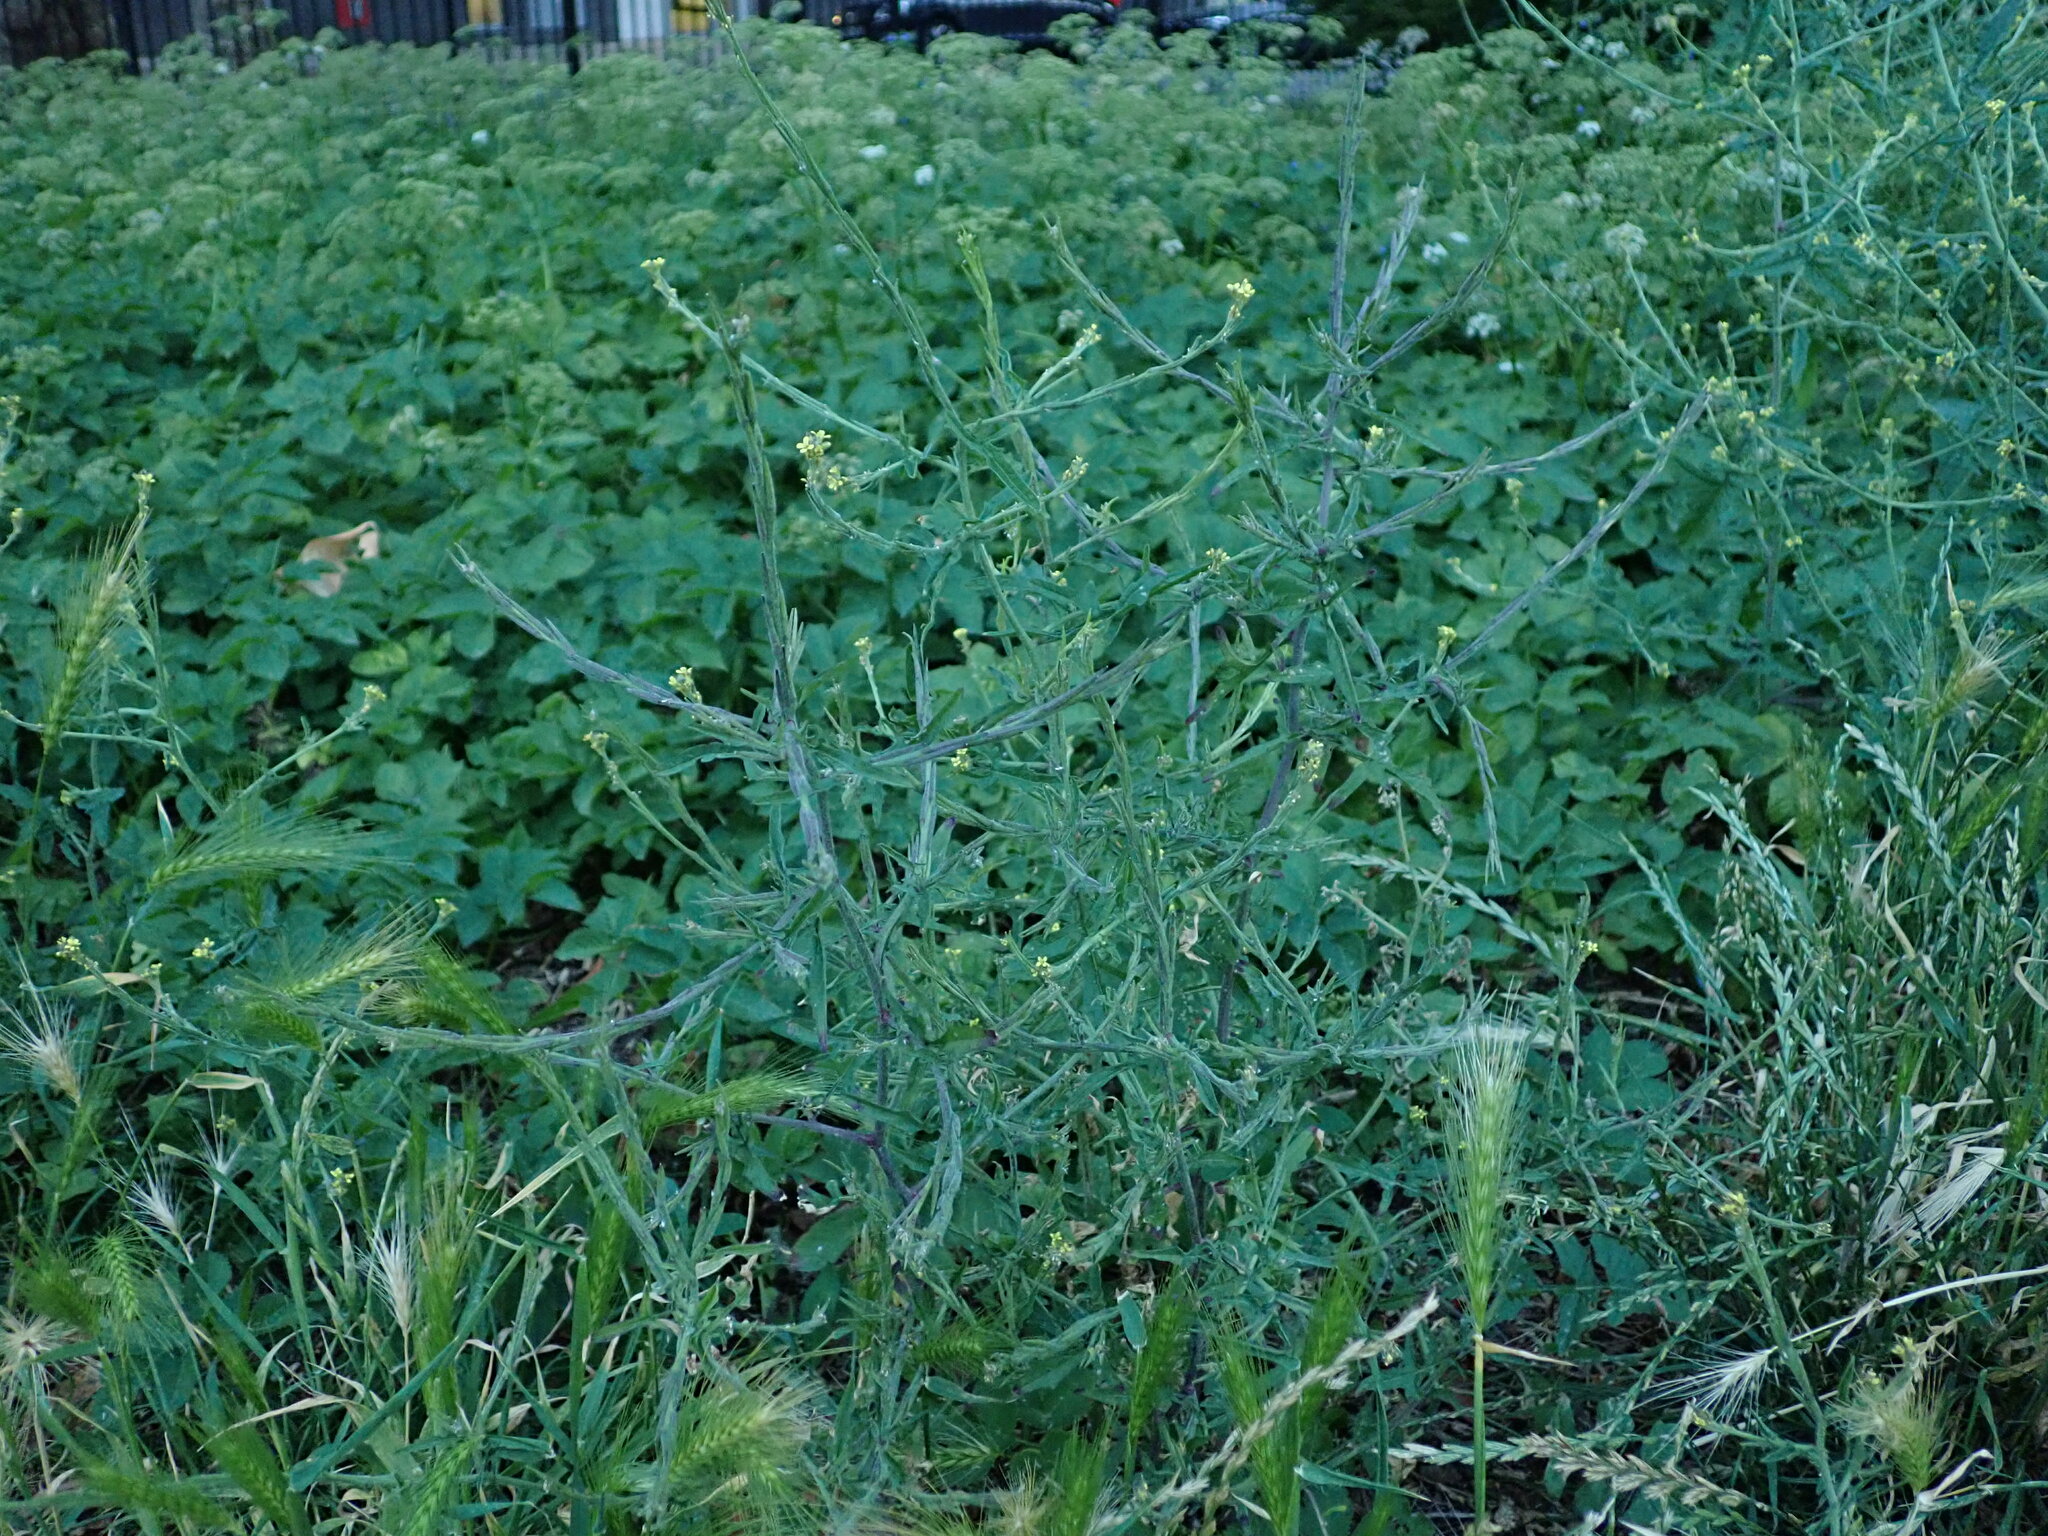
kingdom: Plantae
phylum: Tracheophyta
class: Magnoliopsida
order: Brassicales
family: Brassicaceae
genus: Sisymbrium
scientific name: Sisymbrium officinale
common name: Hedge mustard
